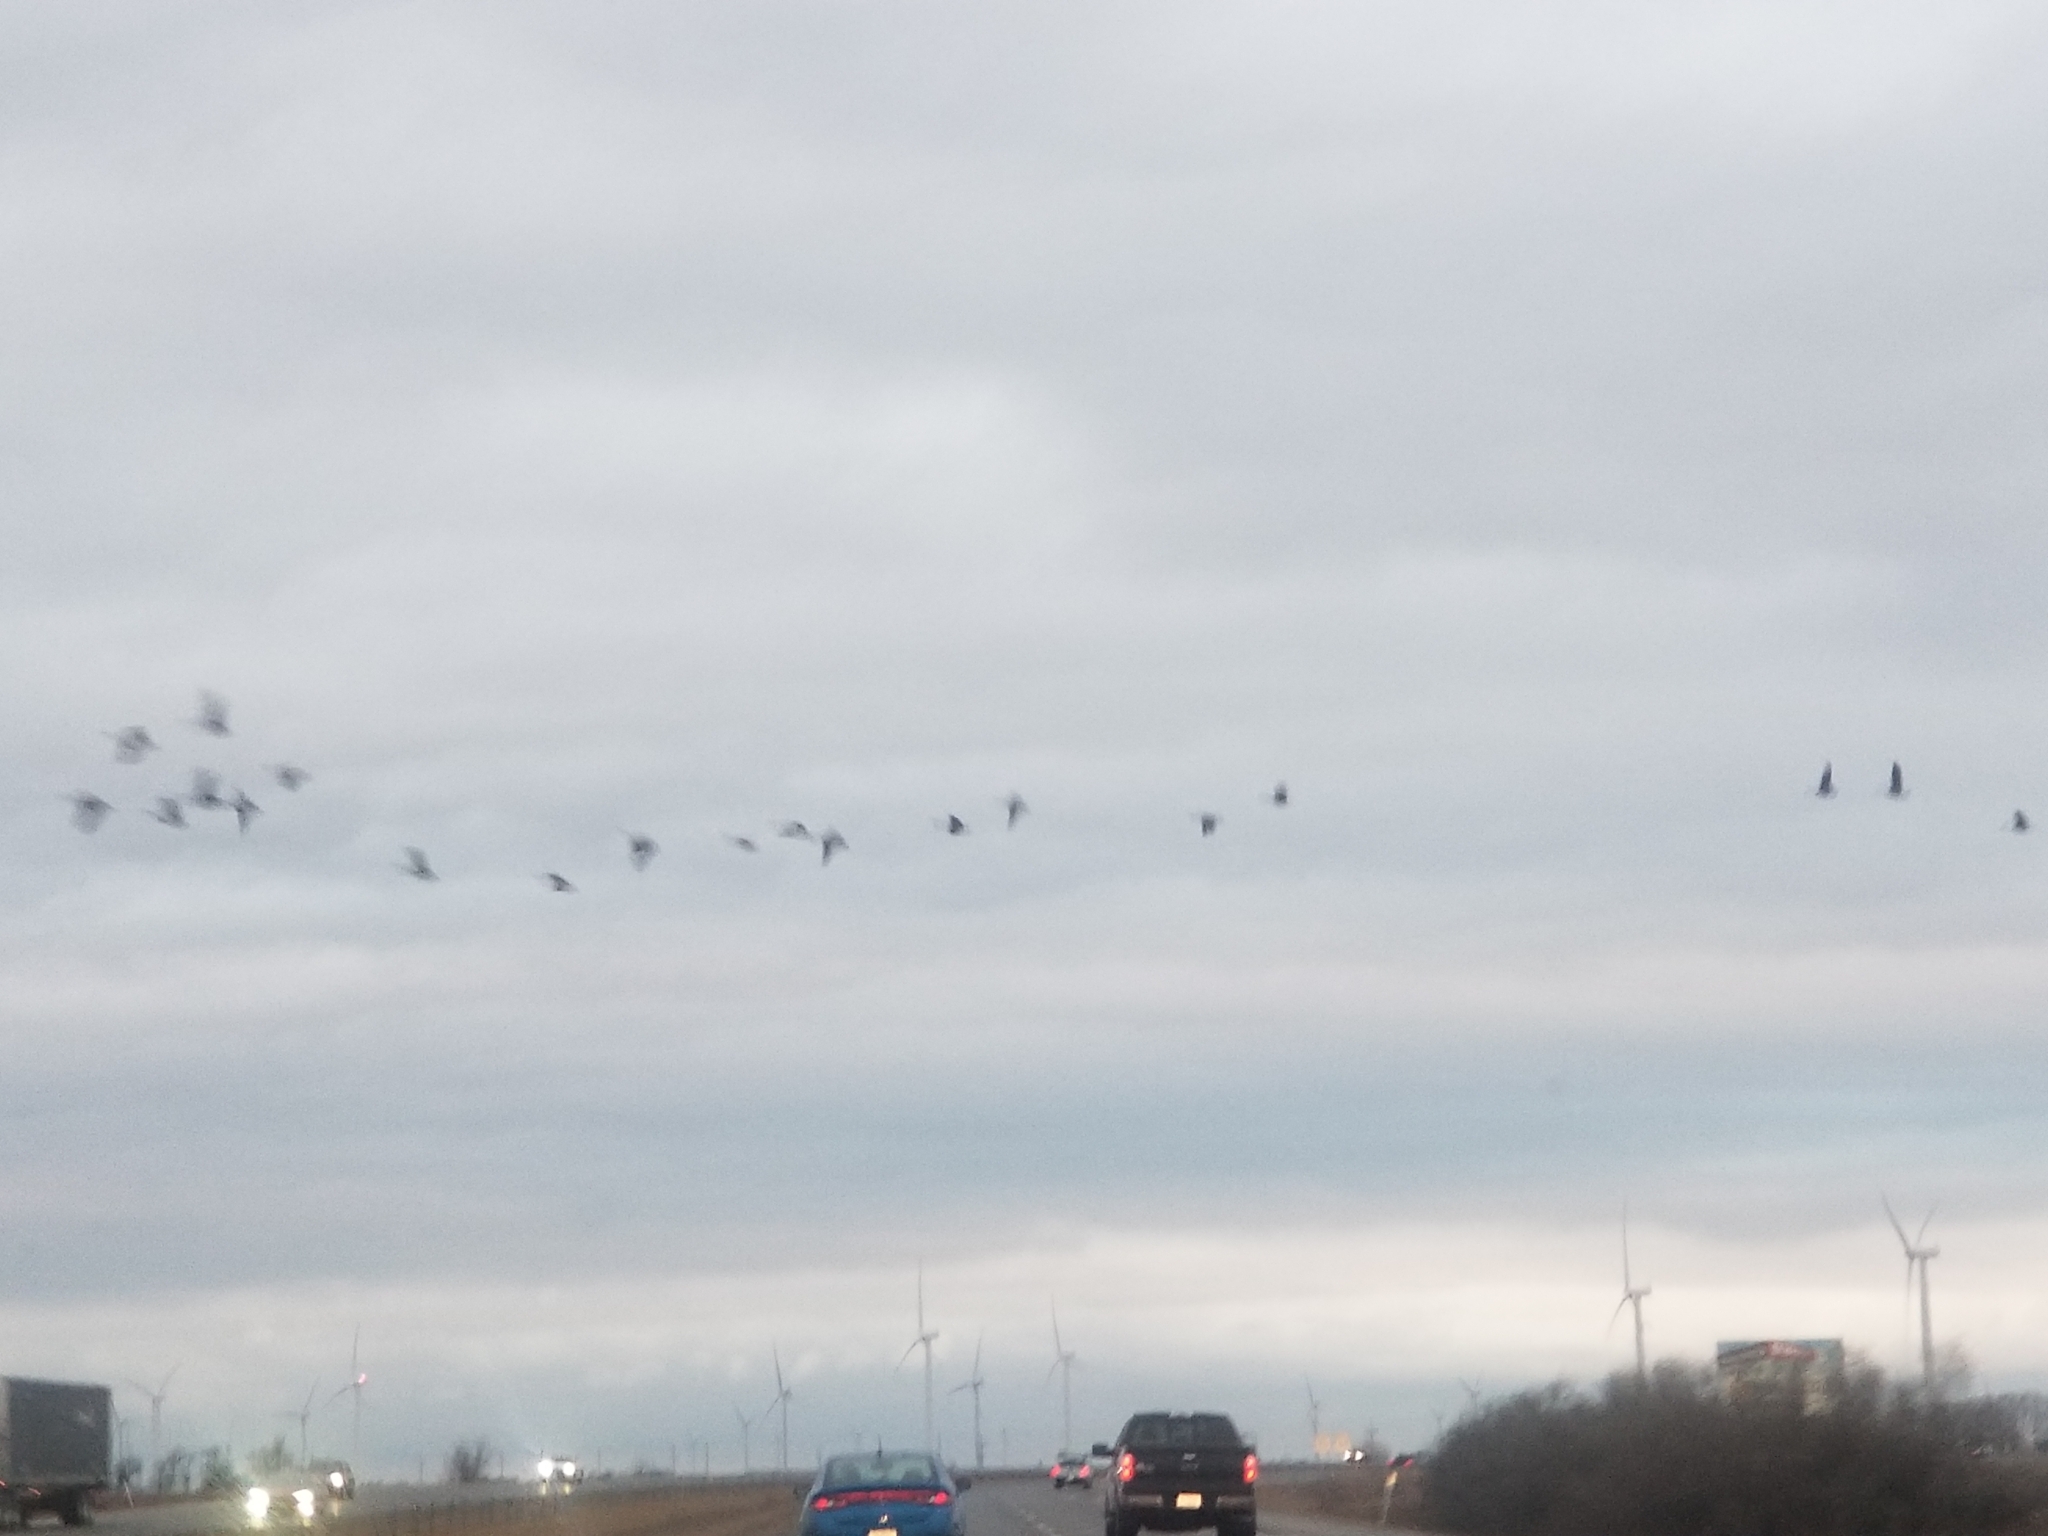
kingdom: Animalia
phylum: Chordata
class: Aves
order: Anseriformes
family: Anatidae
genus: Branta
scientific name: Branta canadensis
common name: Canada goose
